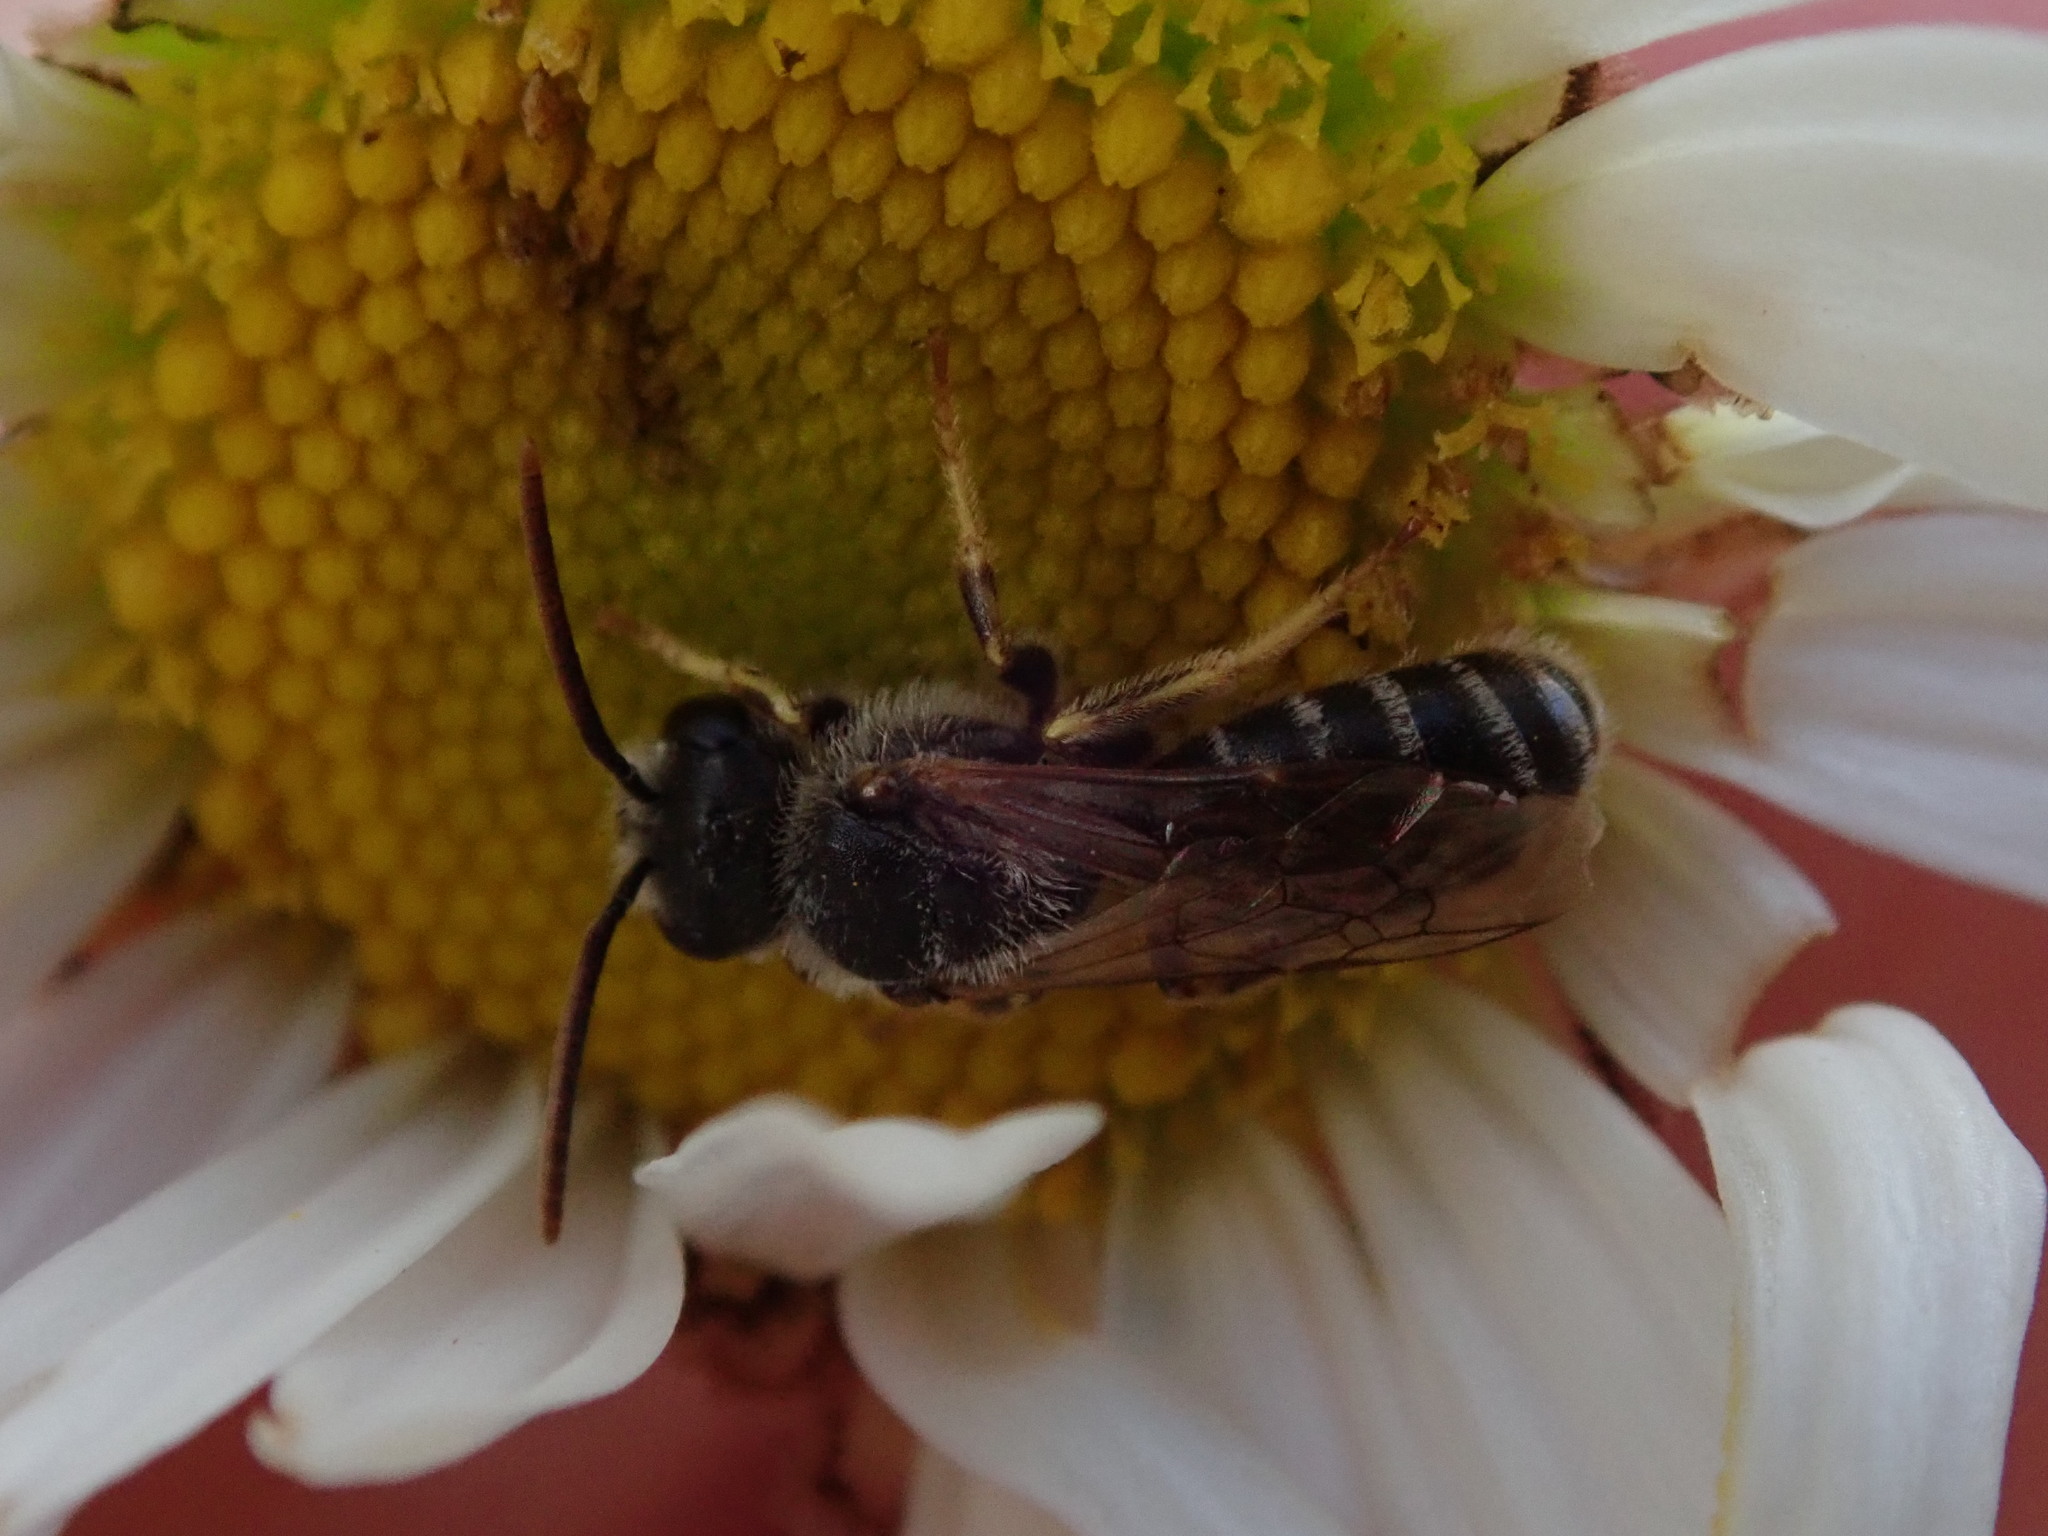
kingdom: Animalia
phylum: Arthropoda
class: Insecta
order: Hymenoptera
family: Halictidae
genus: Halictus
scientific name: Halictus ligatus
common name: Ligated furrow bee
